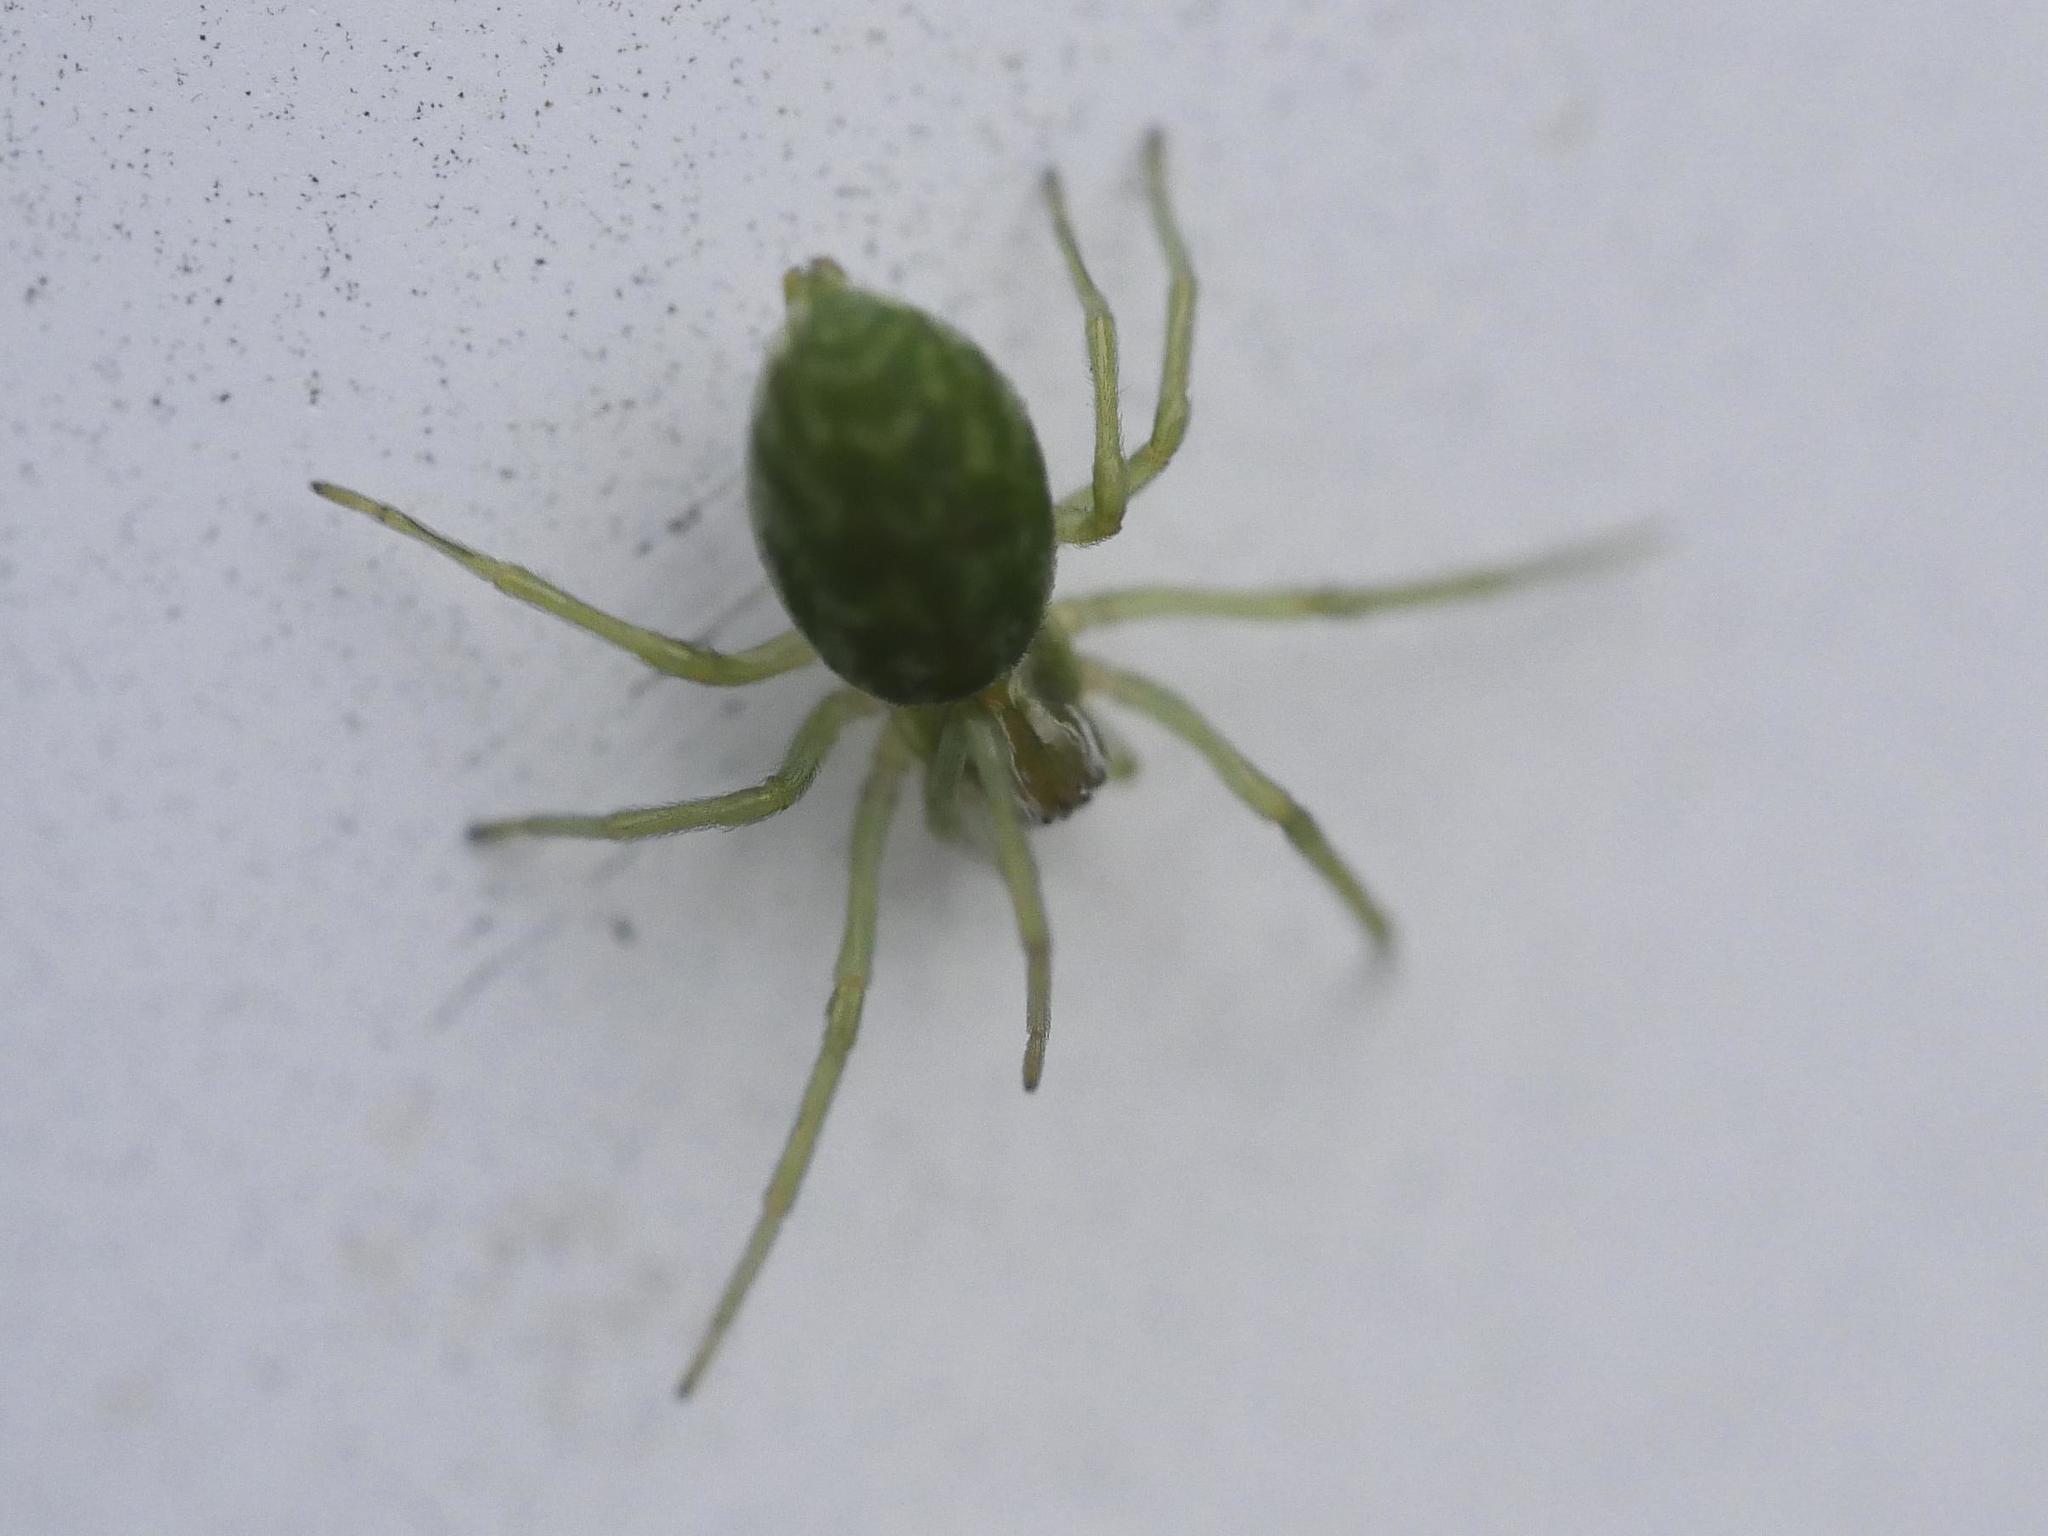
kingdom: Animalia
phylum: Arthropoda
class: Arachnida
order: Araneae
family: Dictynidae
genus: Nigma
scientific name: Nigma walckenaeri
